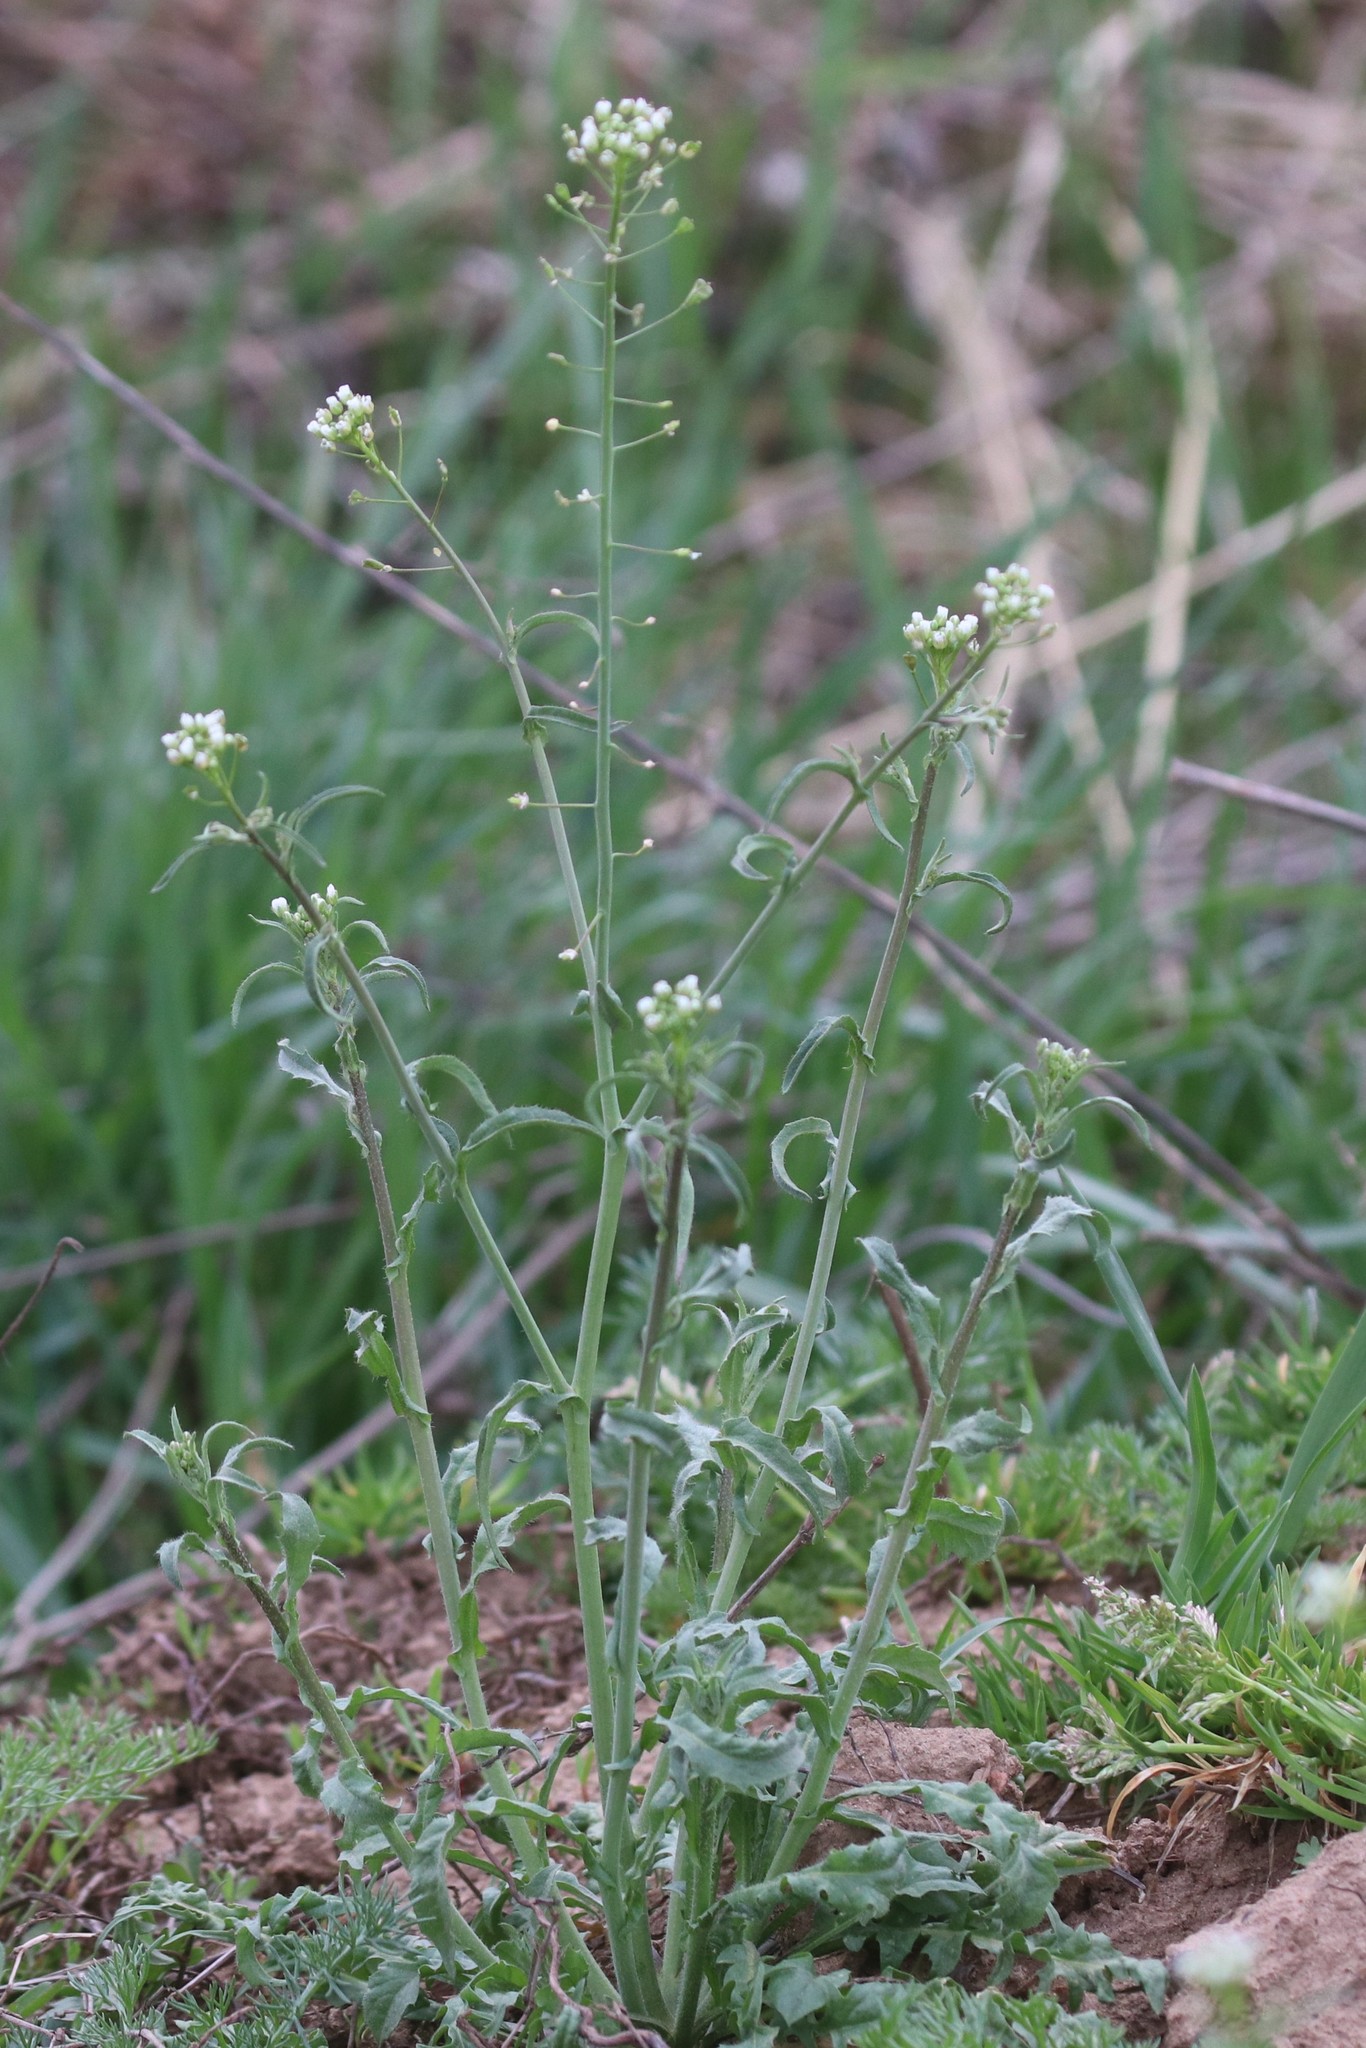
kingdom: Plantae
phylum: Tracheophyta
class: Magnoliopsida
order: Brassicales
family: Brassicaceae
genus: Capsella
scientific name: Capsella bursa-pastoris
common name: Shepherd's purse
